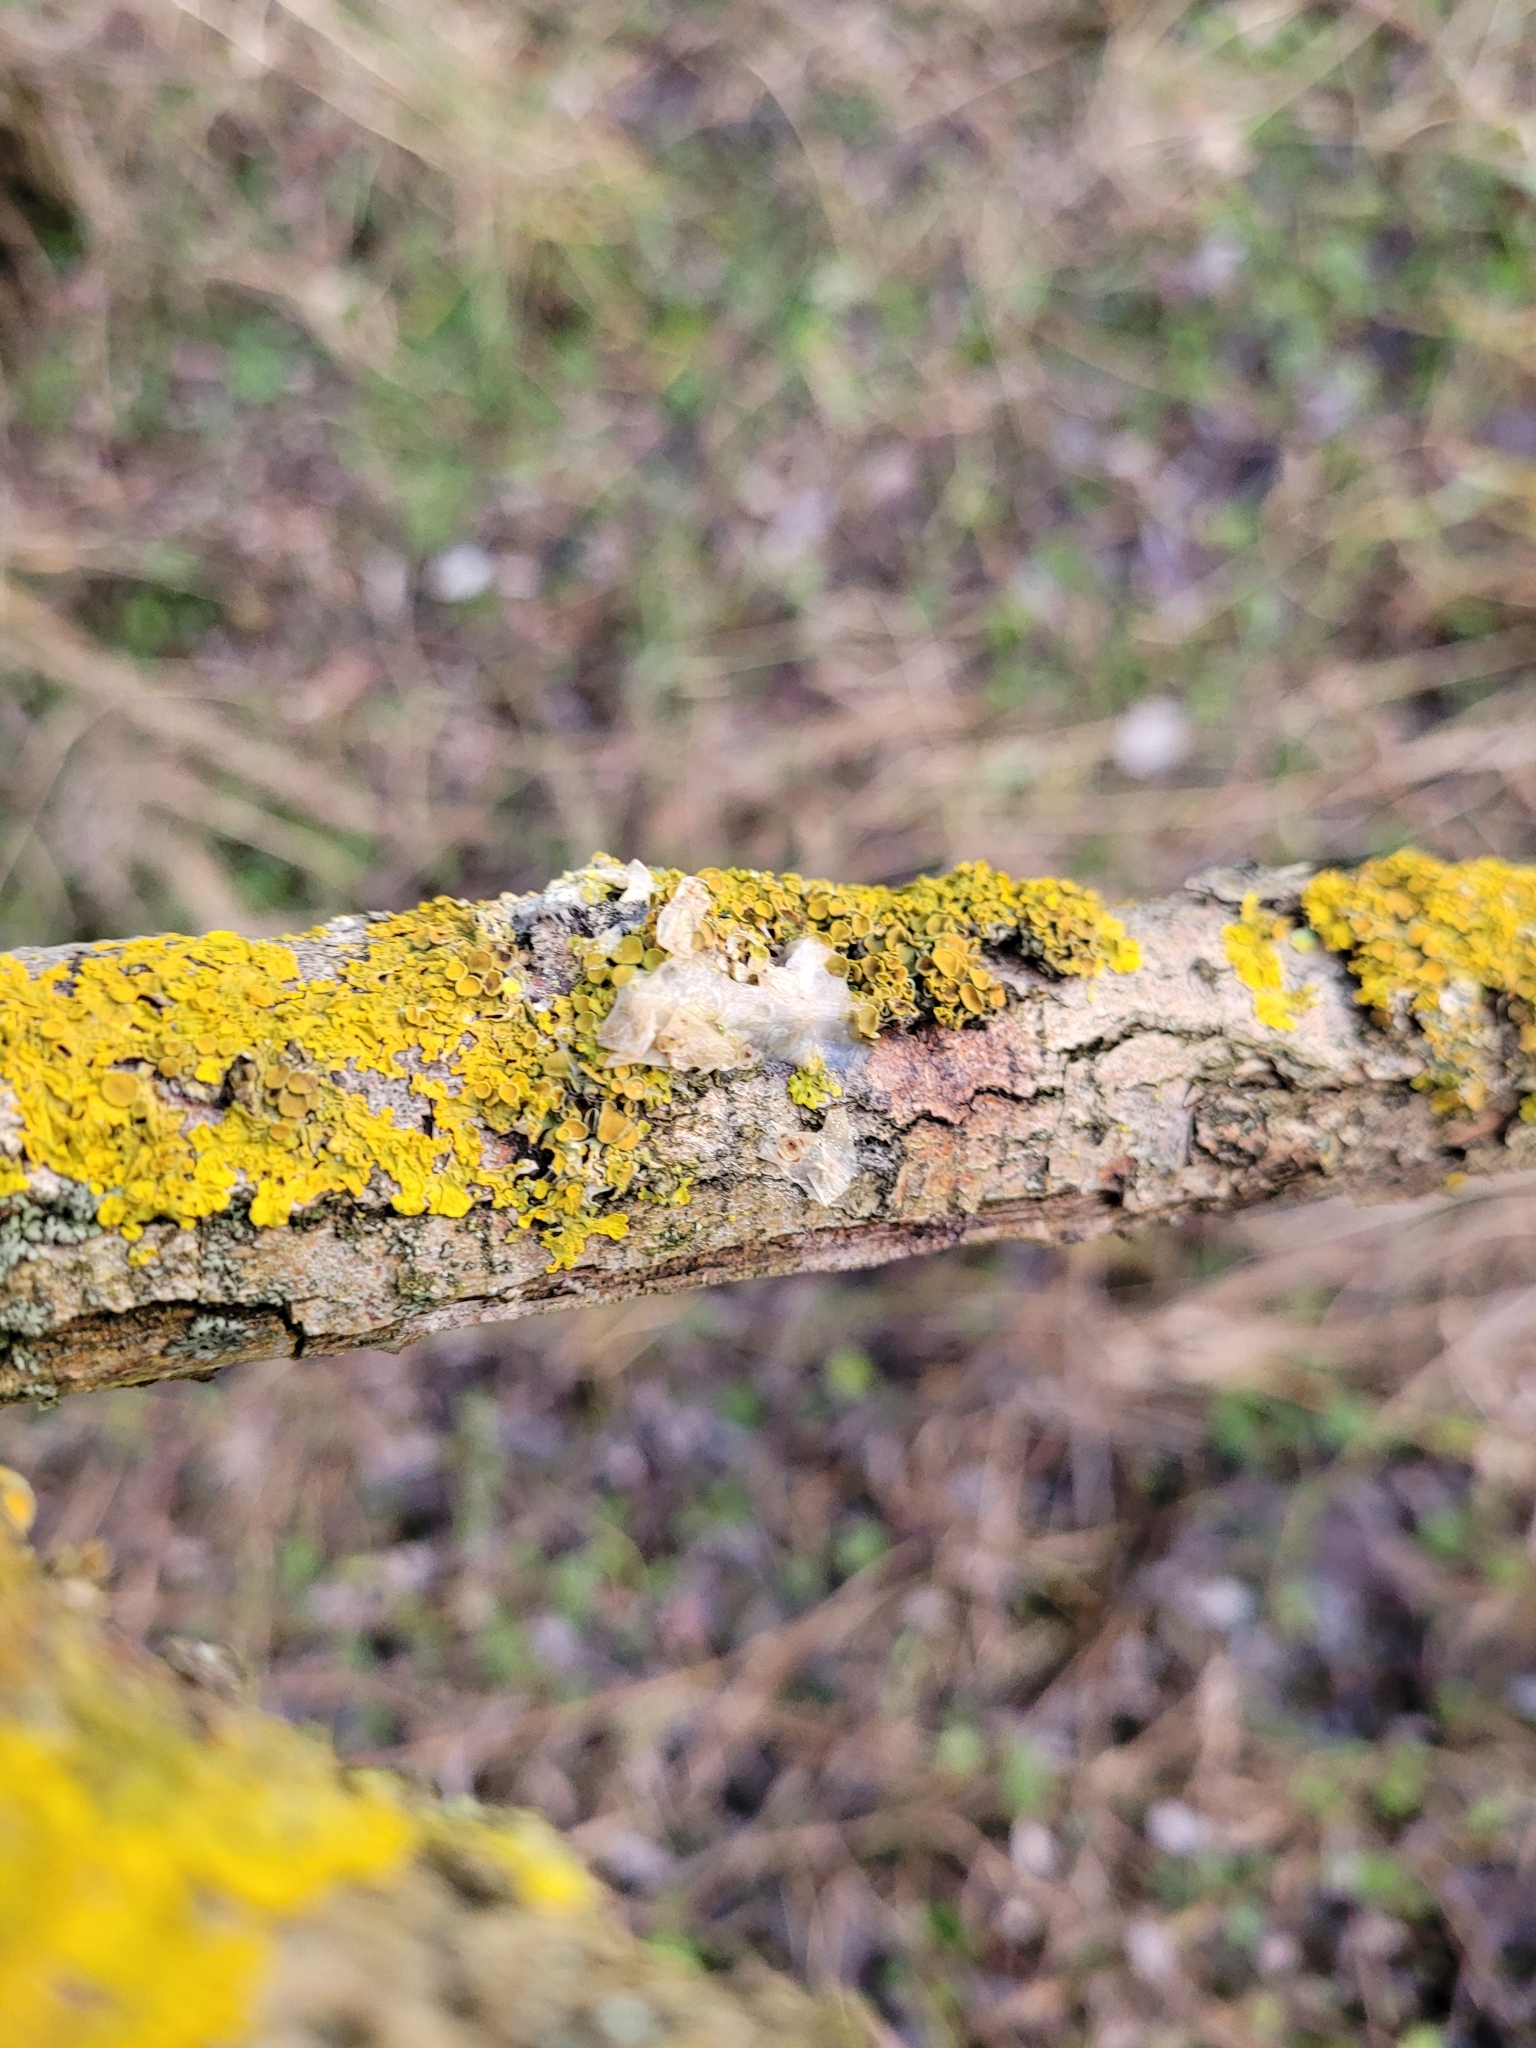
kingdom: Fungi
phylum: Ascomycota
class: Lecanoromycetes
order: Teloschistales
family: Teloschistaceae
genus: Xanthoria
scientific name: Xanthoria parietina
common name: Common orange lichen
